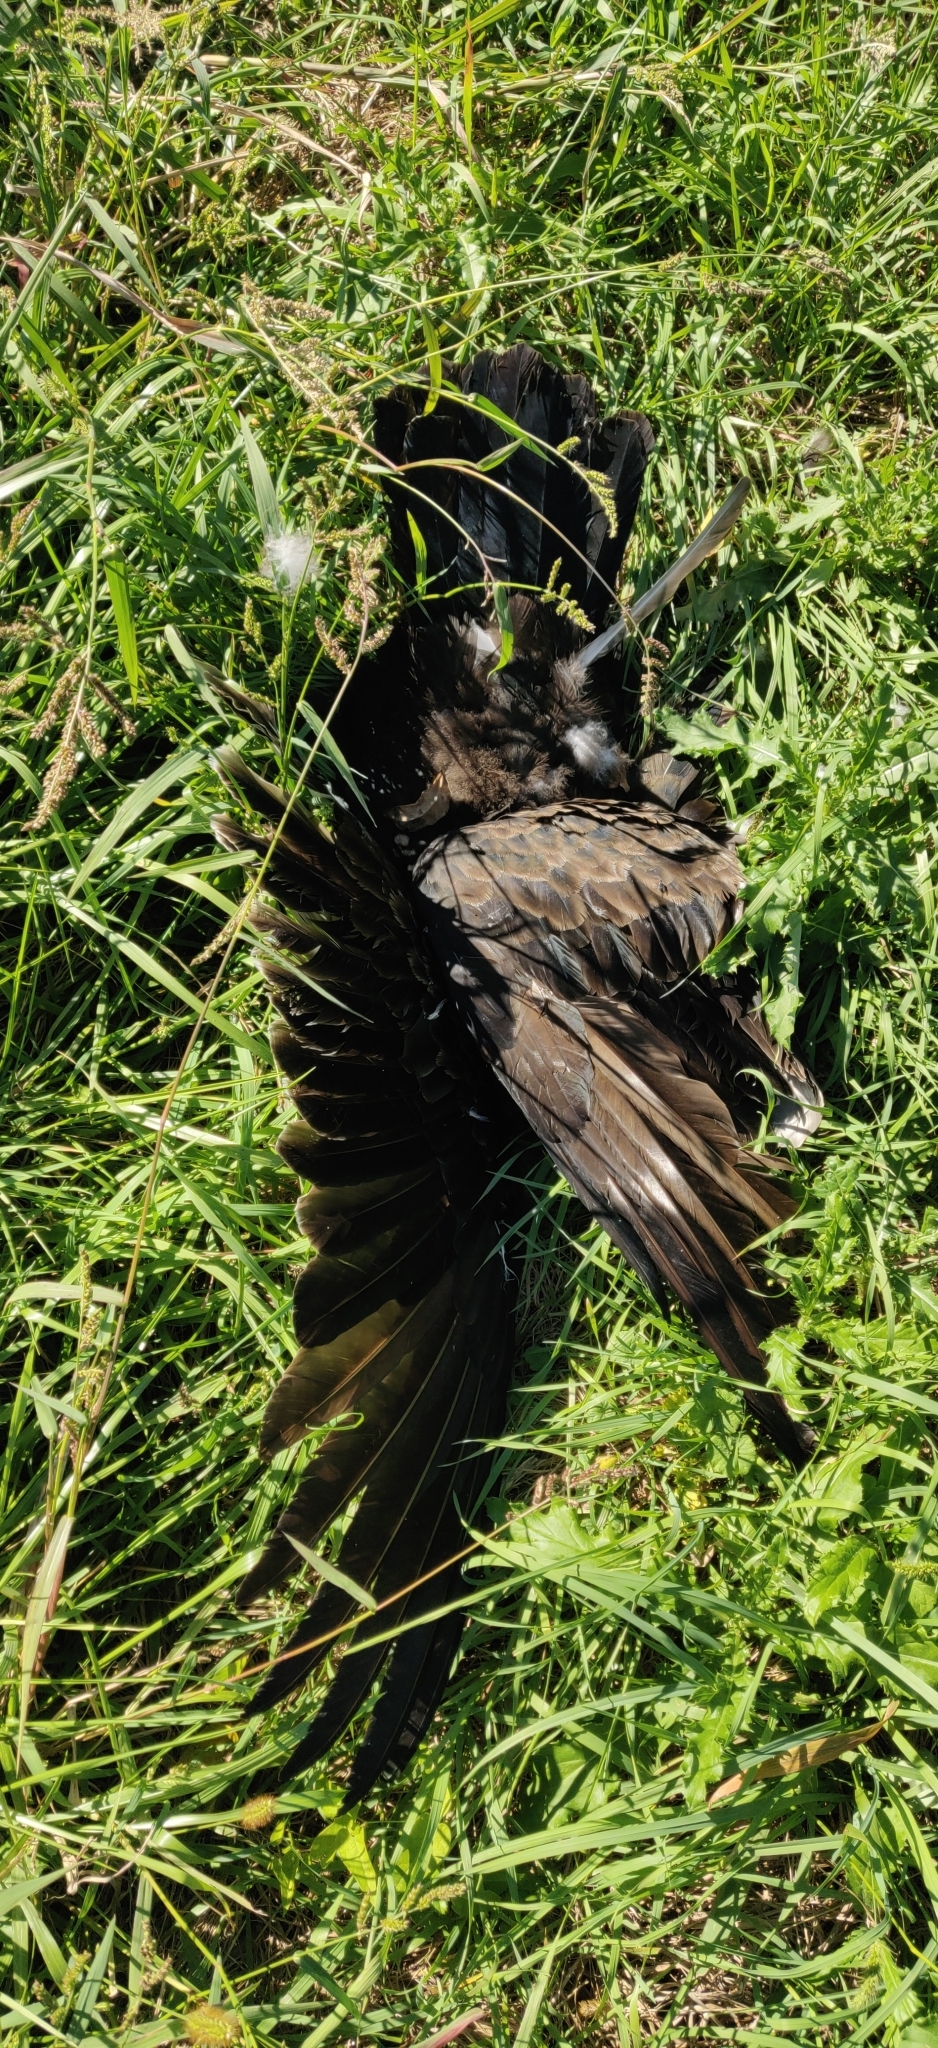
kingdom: Animalia
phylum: Chordata
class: Aves
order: Accipitriformes
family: Cathartidae
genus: Cathartes
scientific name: Cathartes aura
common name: Turkey vulture
